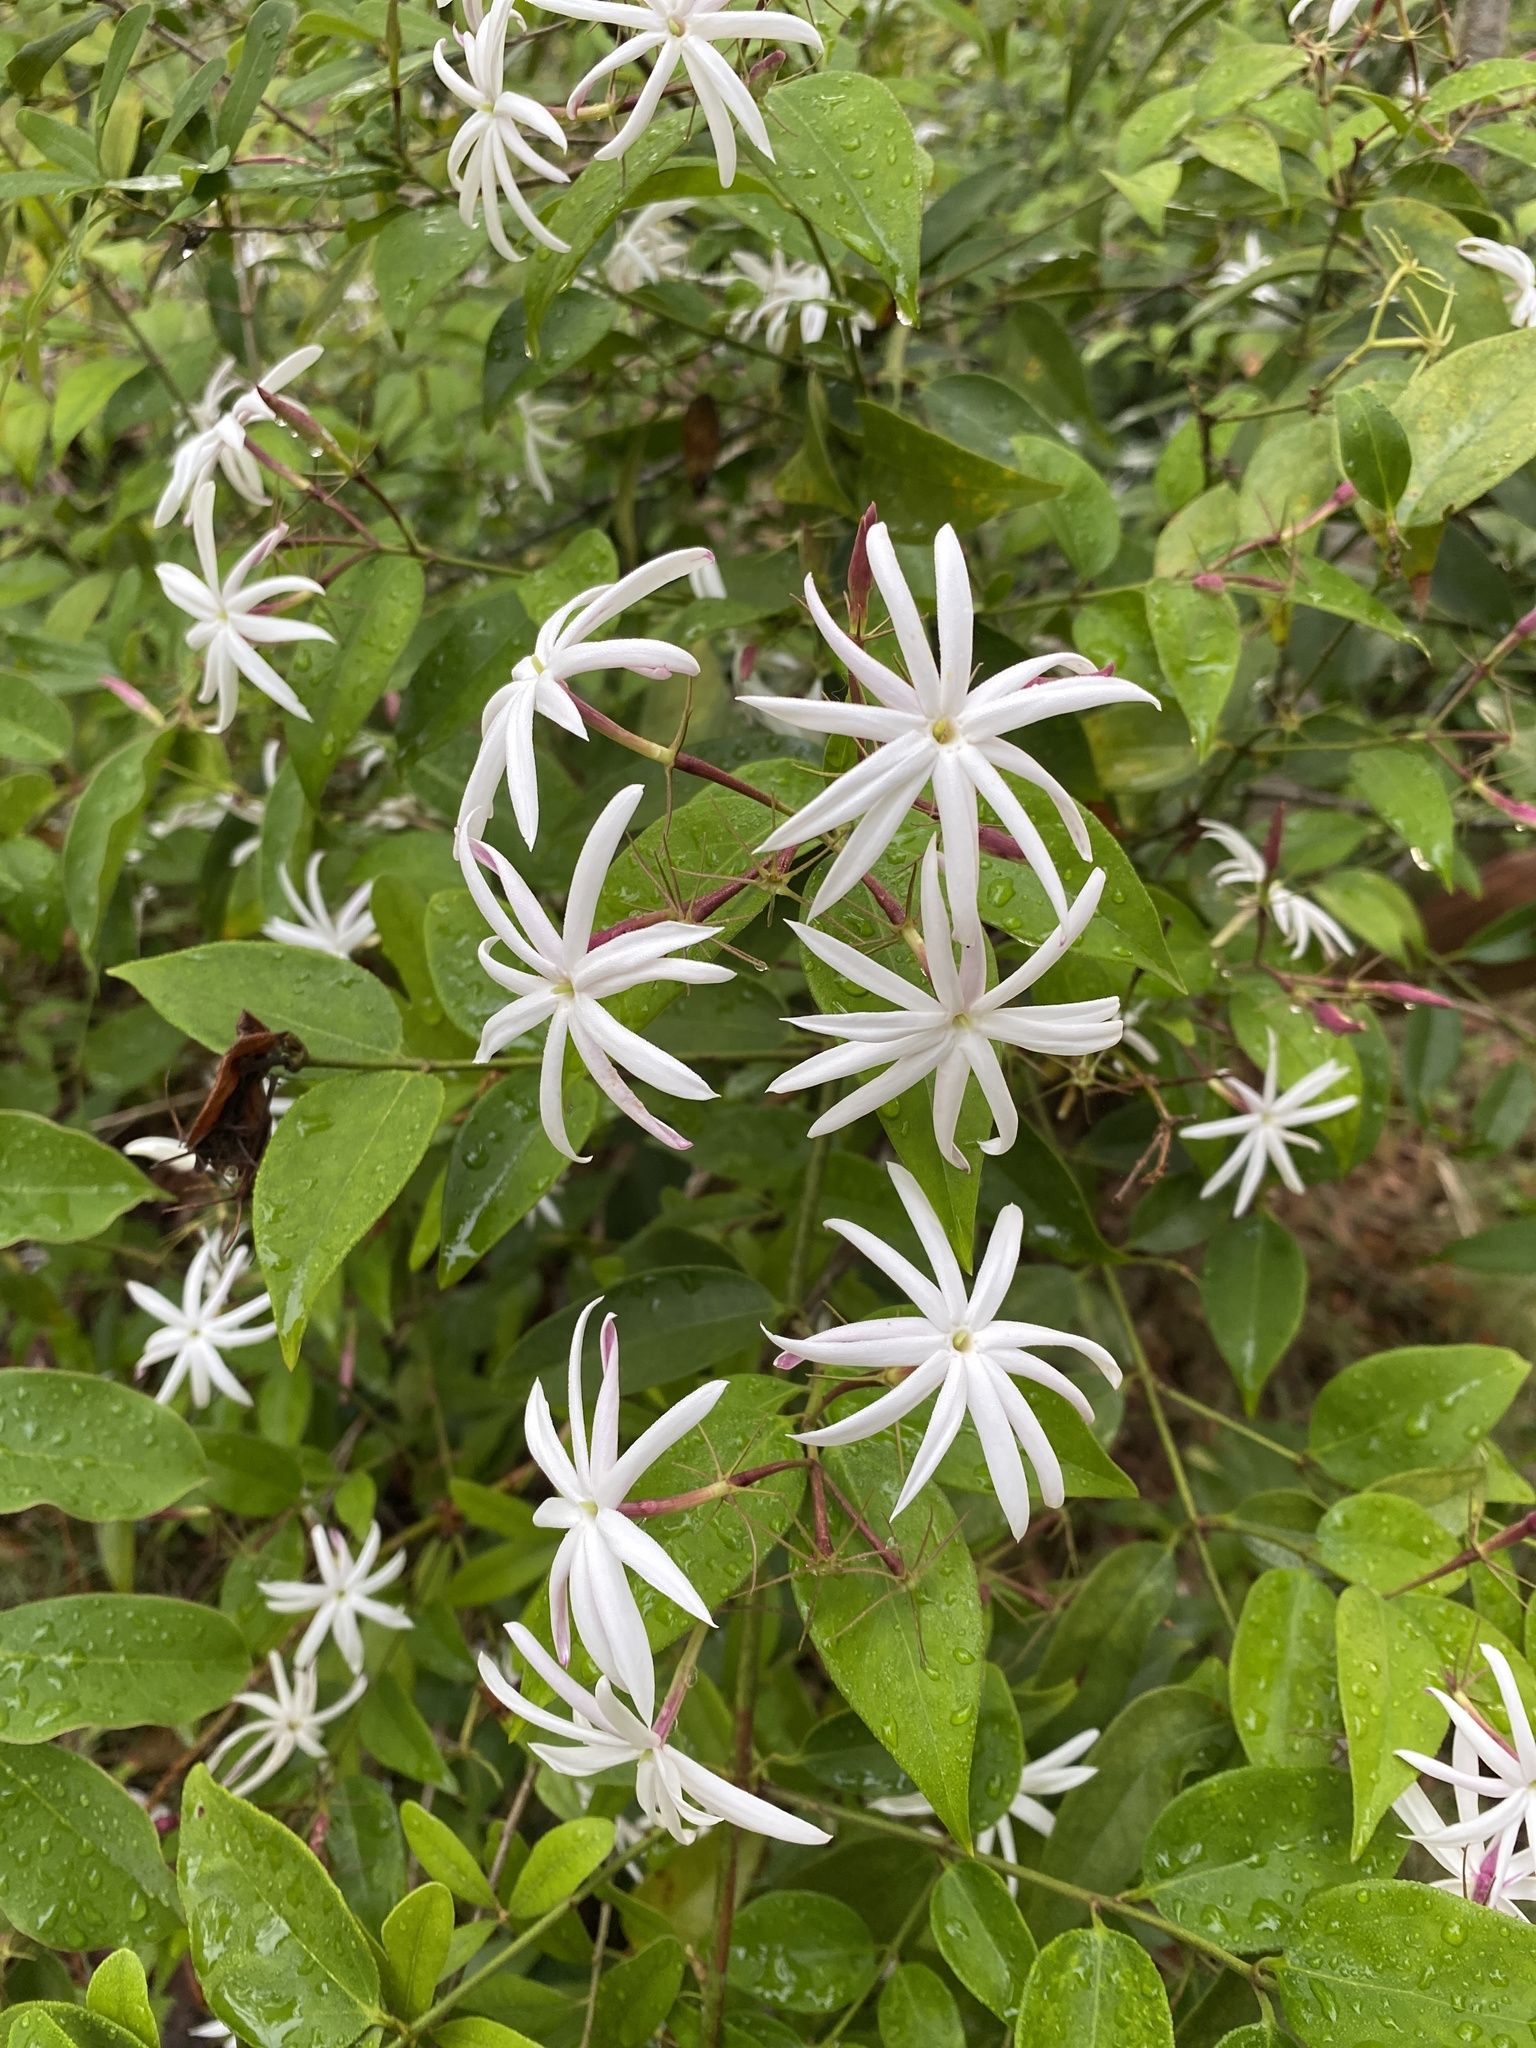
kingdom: Plantae
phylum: Tracheophyta
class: Magnoliopsida
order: Lamiales
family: Oleaceae
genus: Jasminum
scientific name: Jasminum fluminense
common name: Brazilian jasmine
